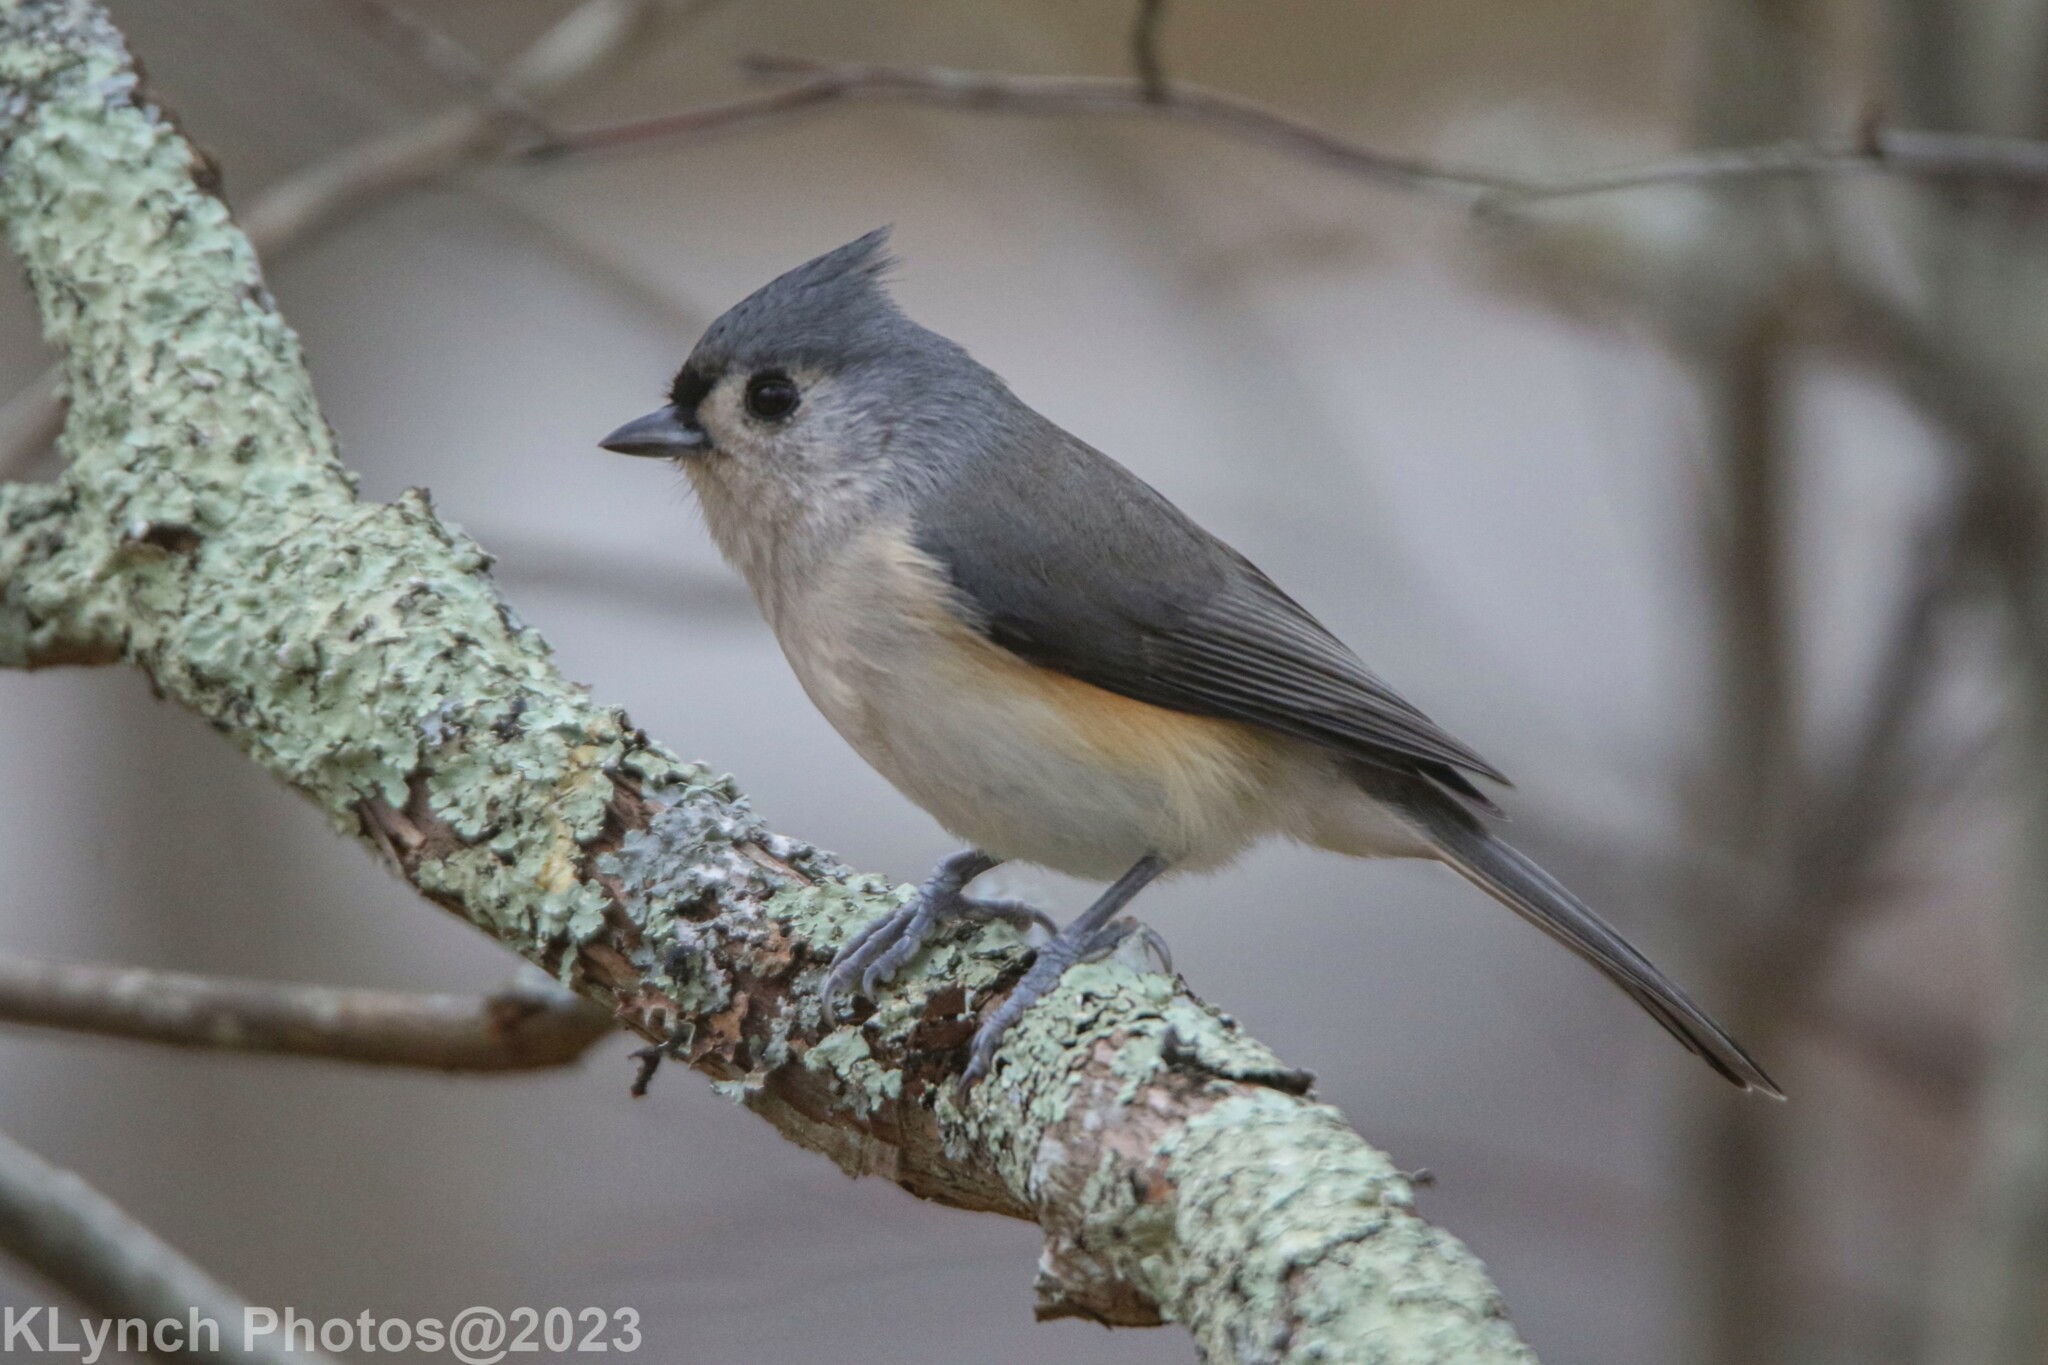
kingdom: Animalia
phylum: Chordata
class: Aves
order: Passeriformes
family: Paridae
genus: Baeolophus
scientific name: Baeolophus bicolor
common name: Tufted titmouse
